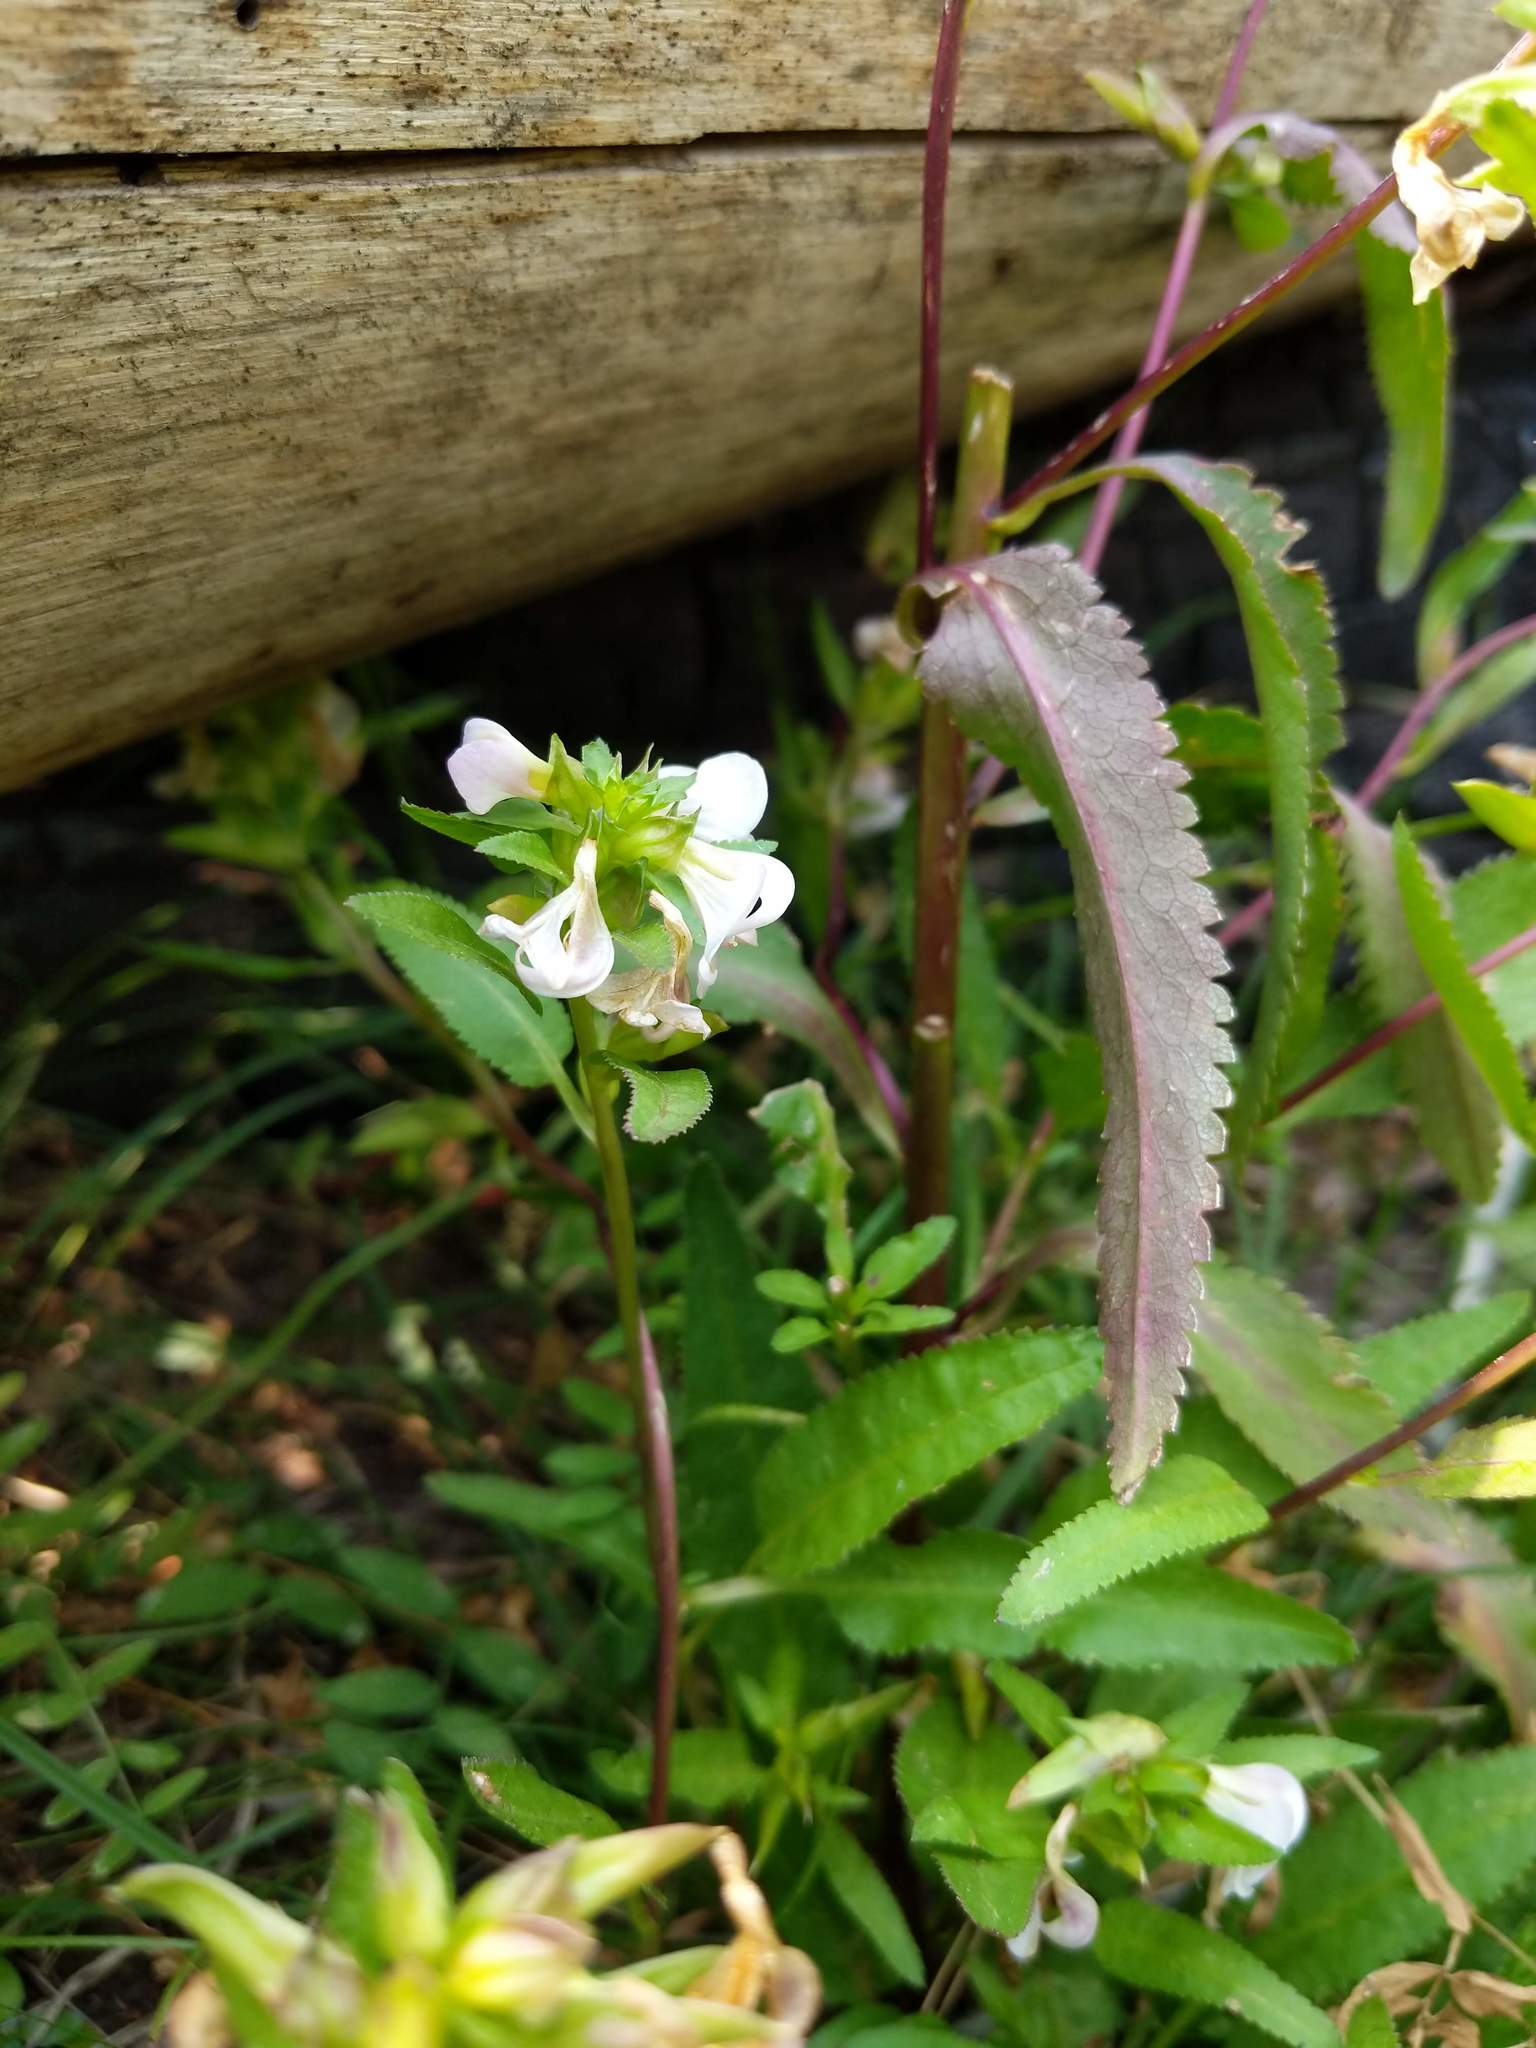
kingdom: Plantae
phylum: Tracheophyta
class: Magnoliopsida
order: Lamiales
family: Orobanchaceae
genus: Pedicularis
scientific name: Pedicularis racemosa
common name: Leafy lousewort
